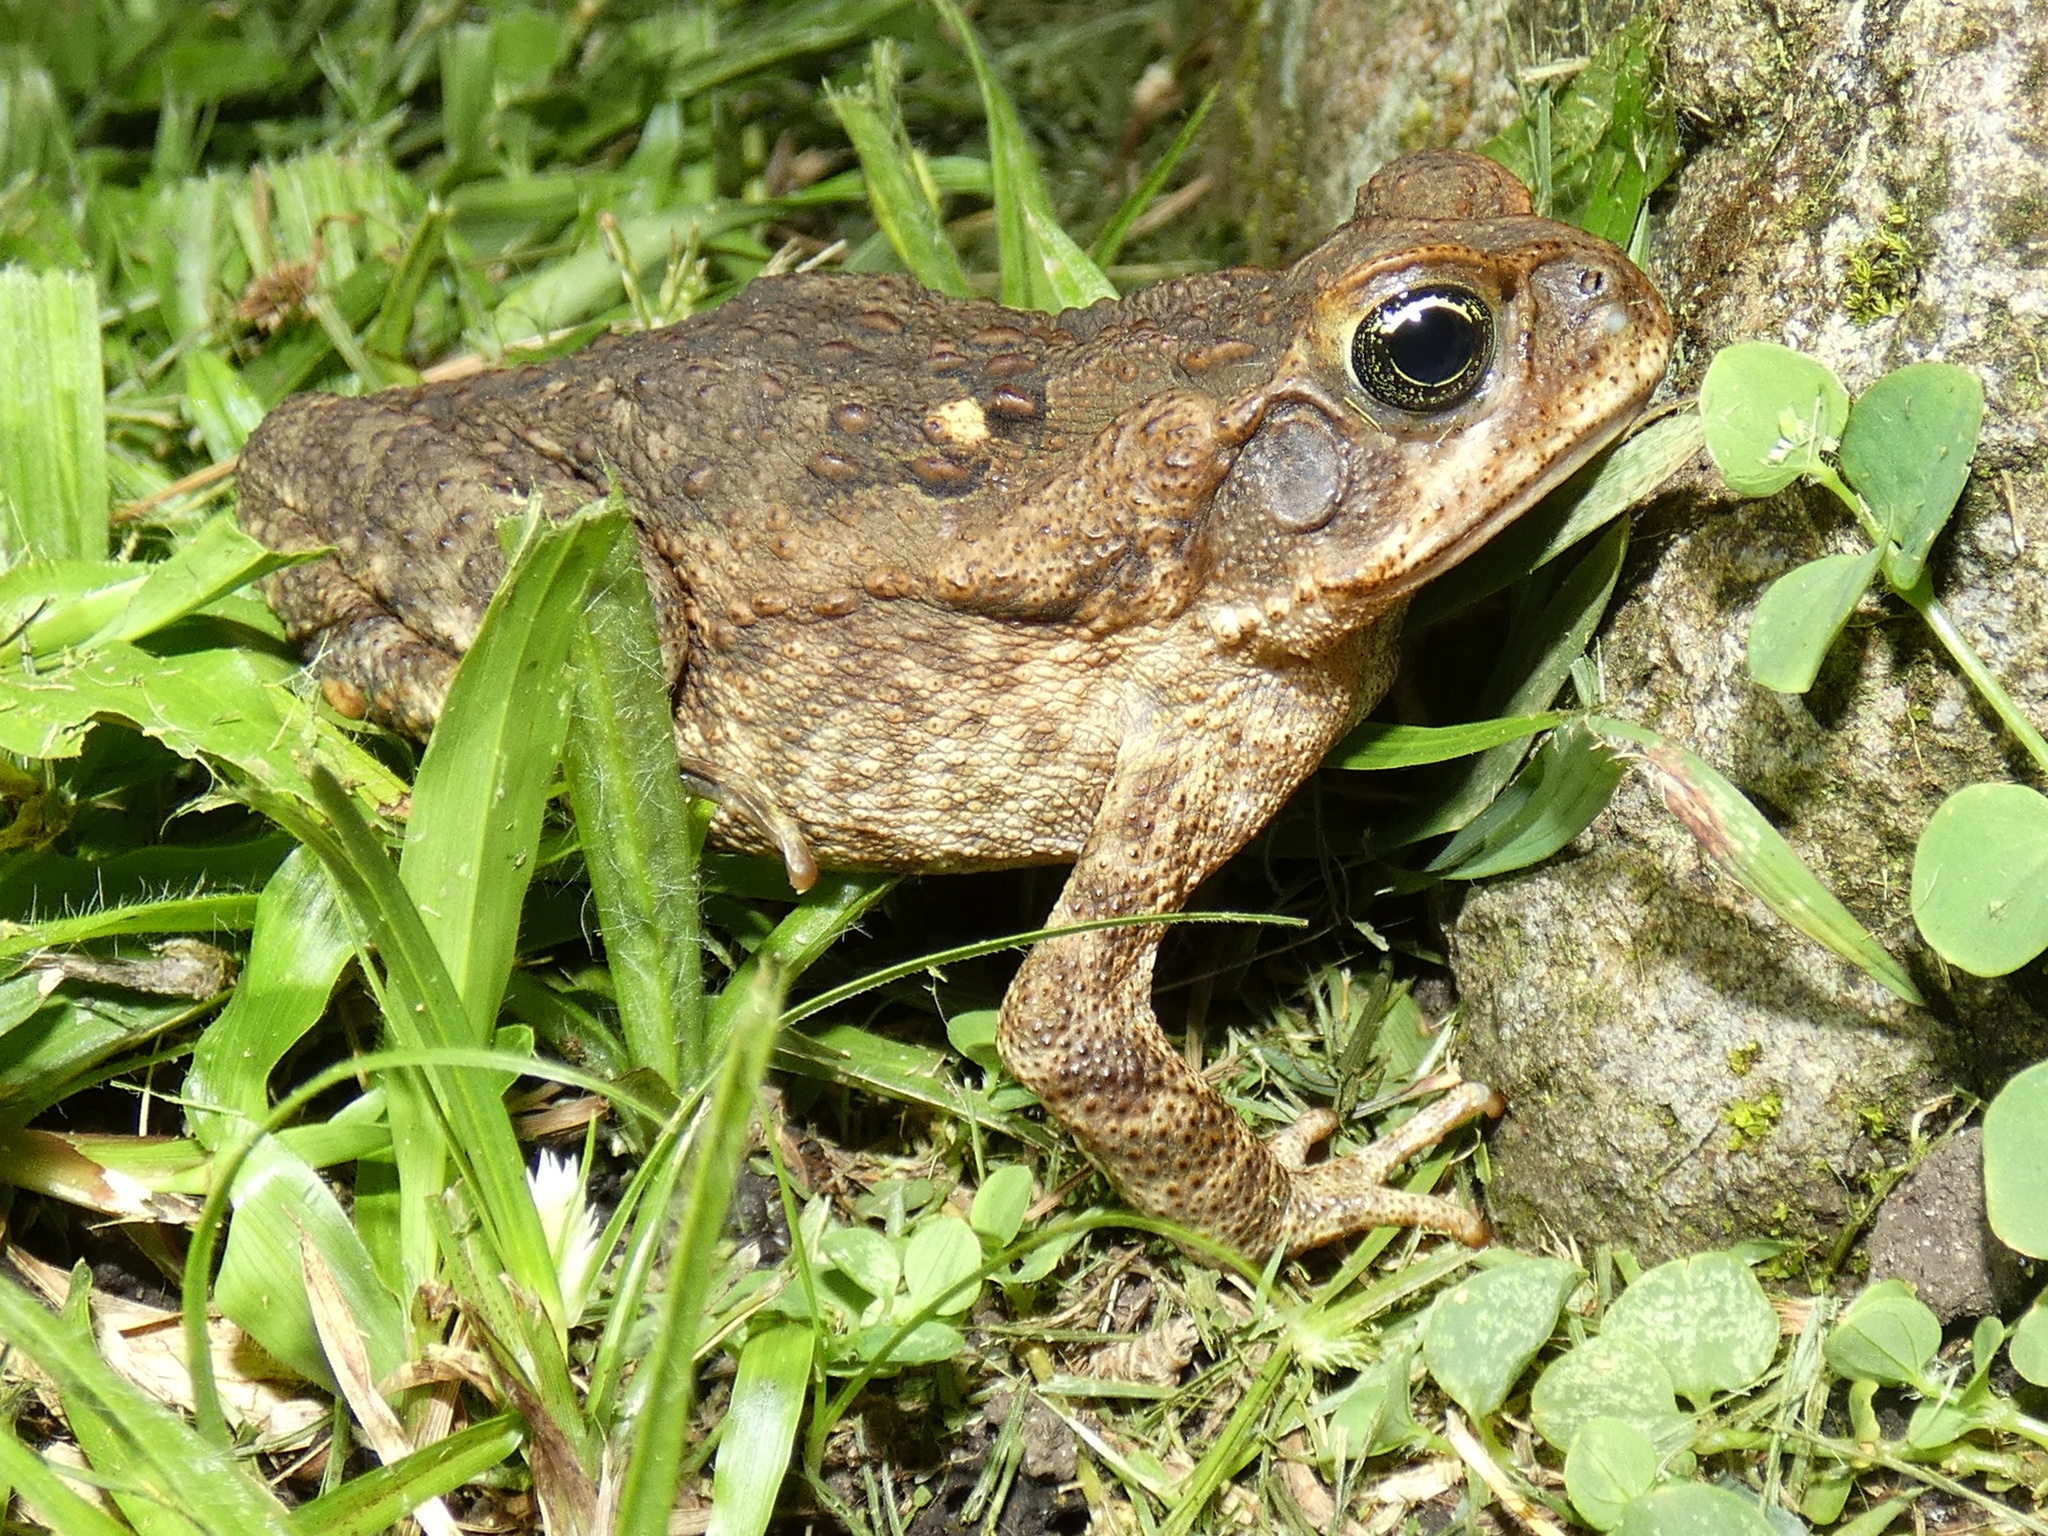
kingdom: Animalia
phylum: Chordata
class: Amphibia
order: Anura
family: Bufonidae
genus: Rhinella
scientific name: Rhinella horribilis
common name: Mesoamerican cane toad
